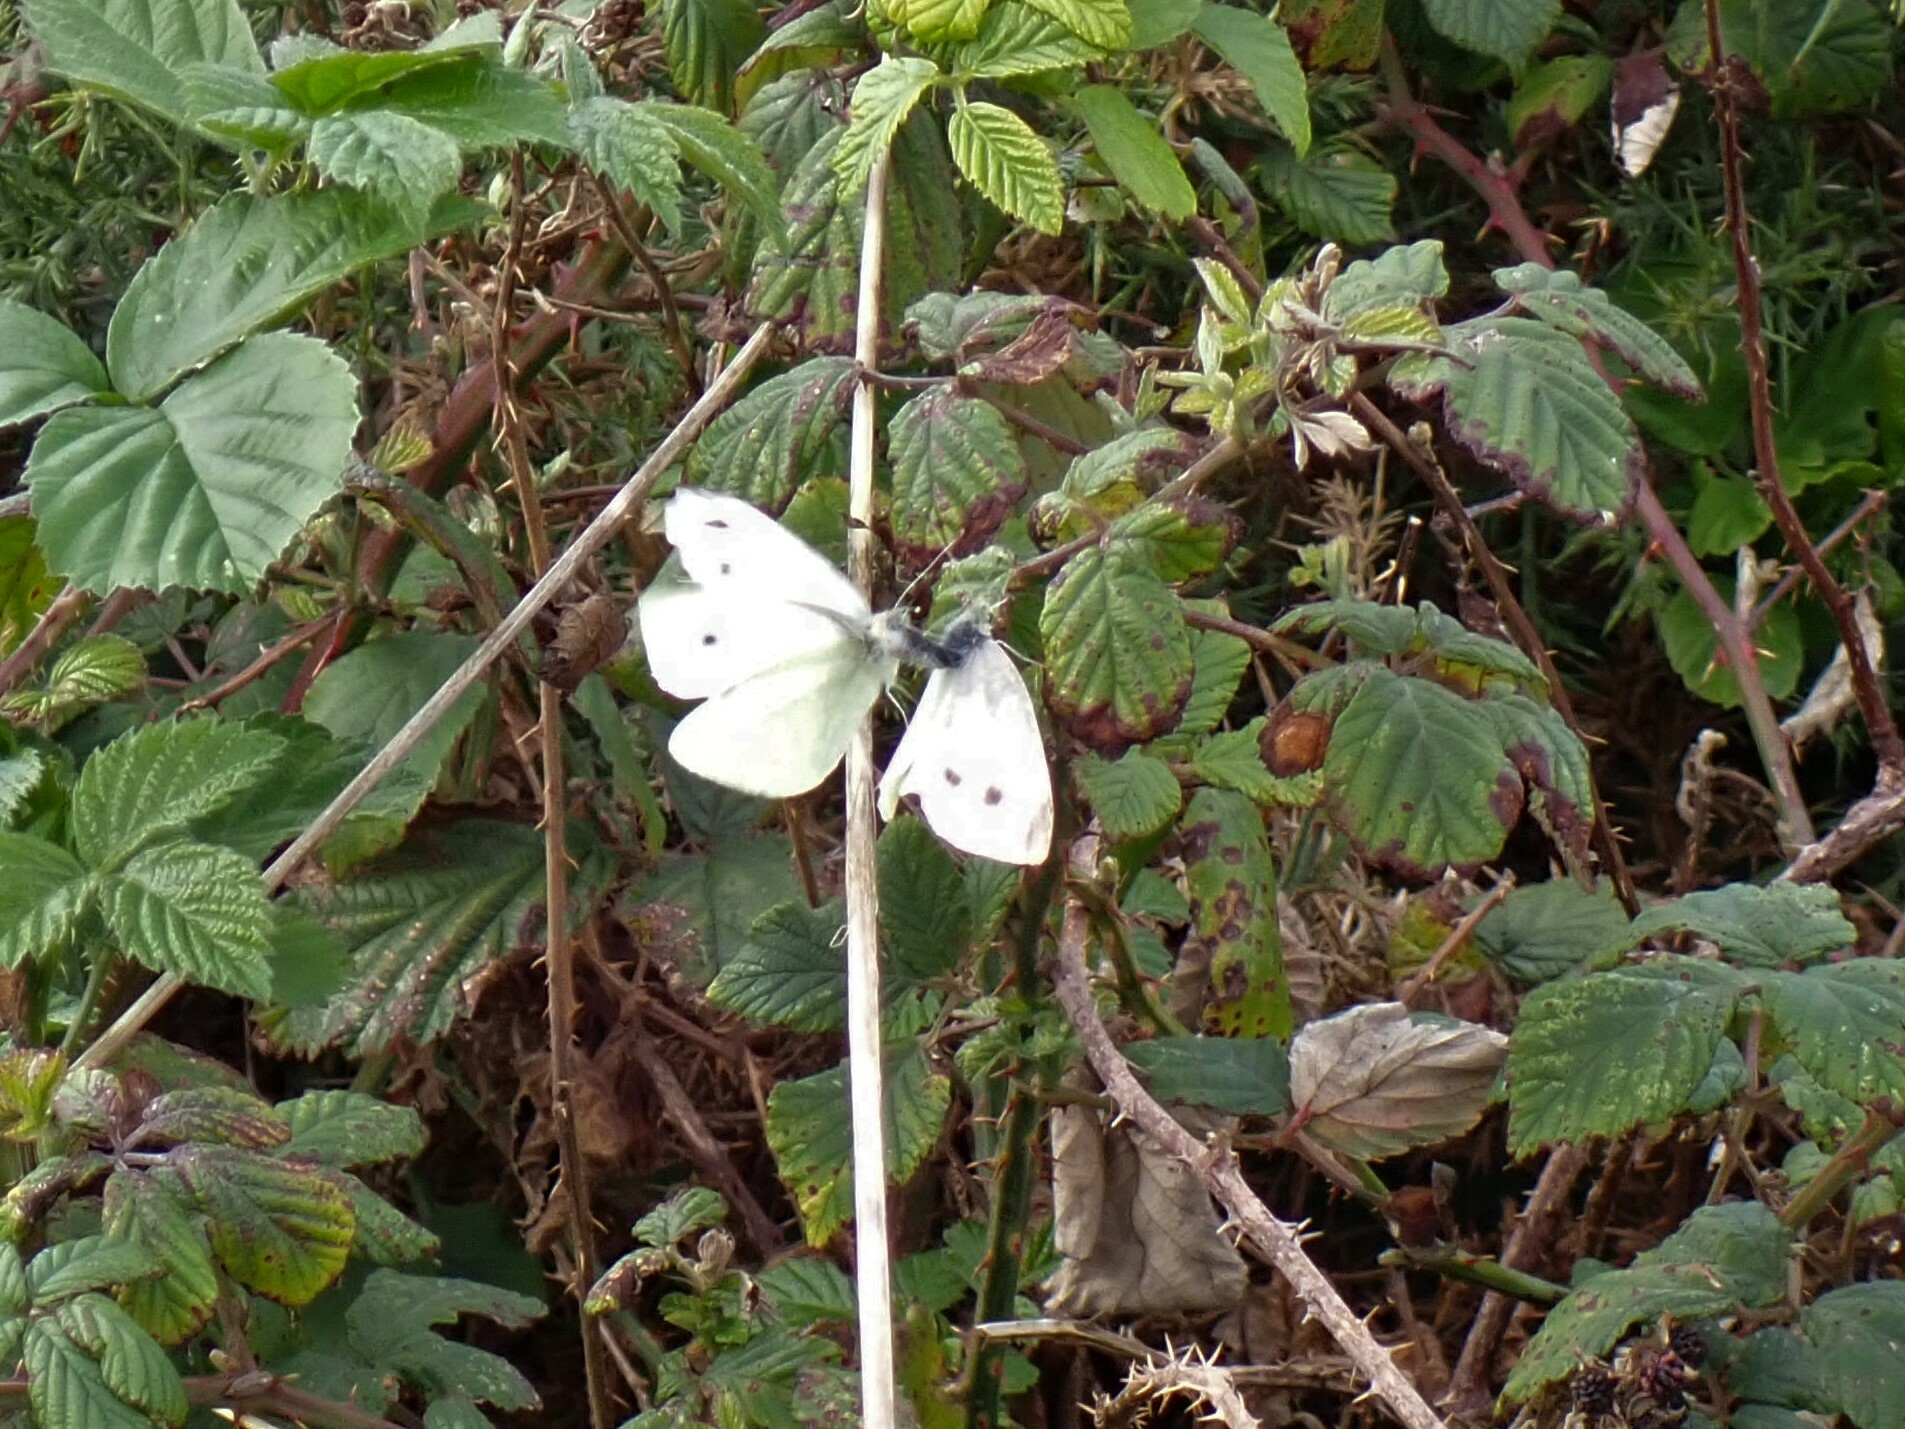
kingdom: Animalia
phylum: Arthropoda
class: Insecta
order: Lepidoptera
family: Pieridae
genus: Pieris
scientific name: Pieris rapae
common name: Small white
